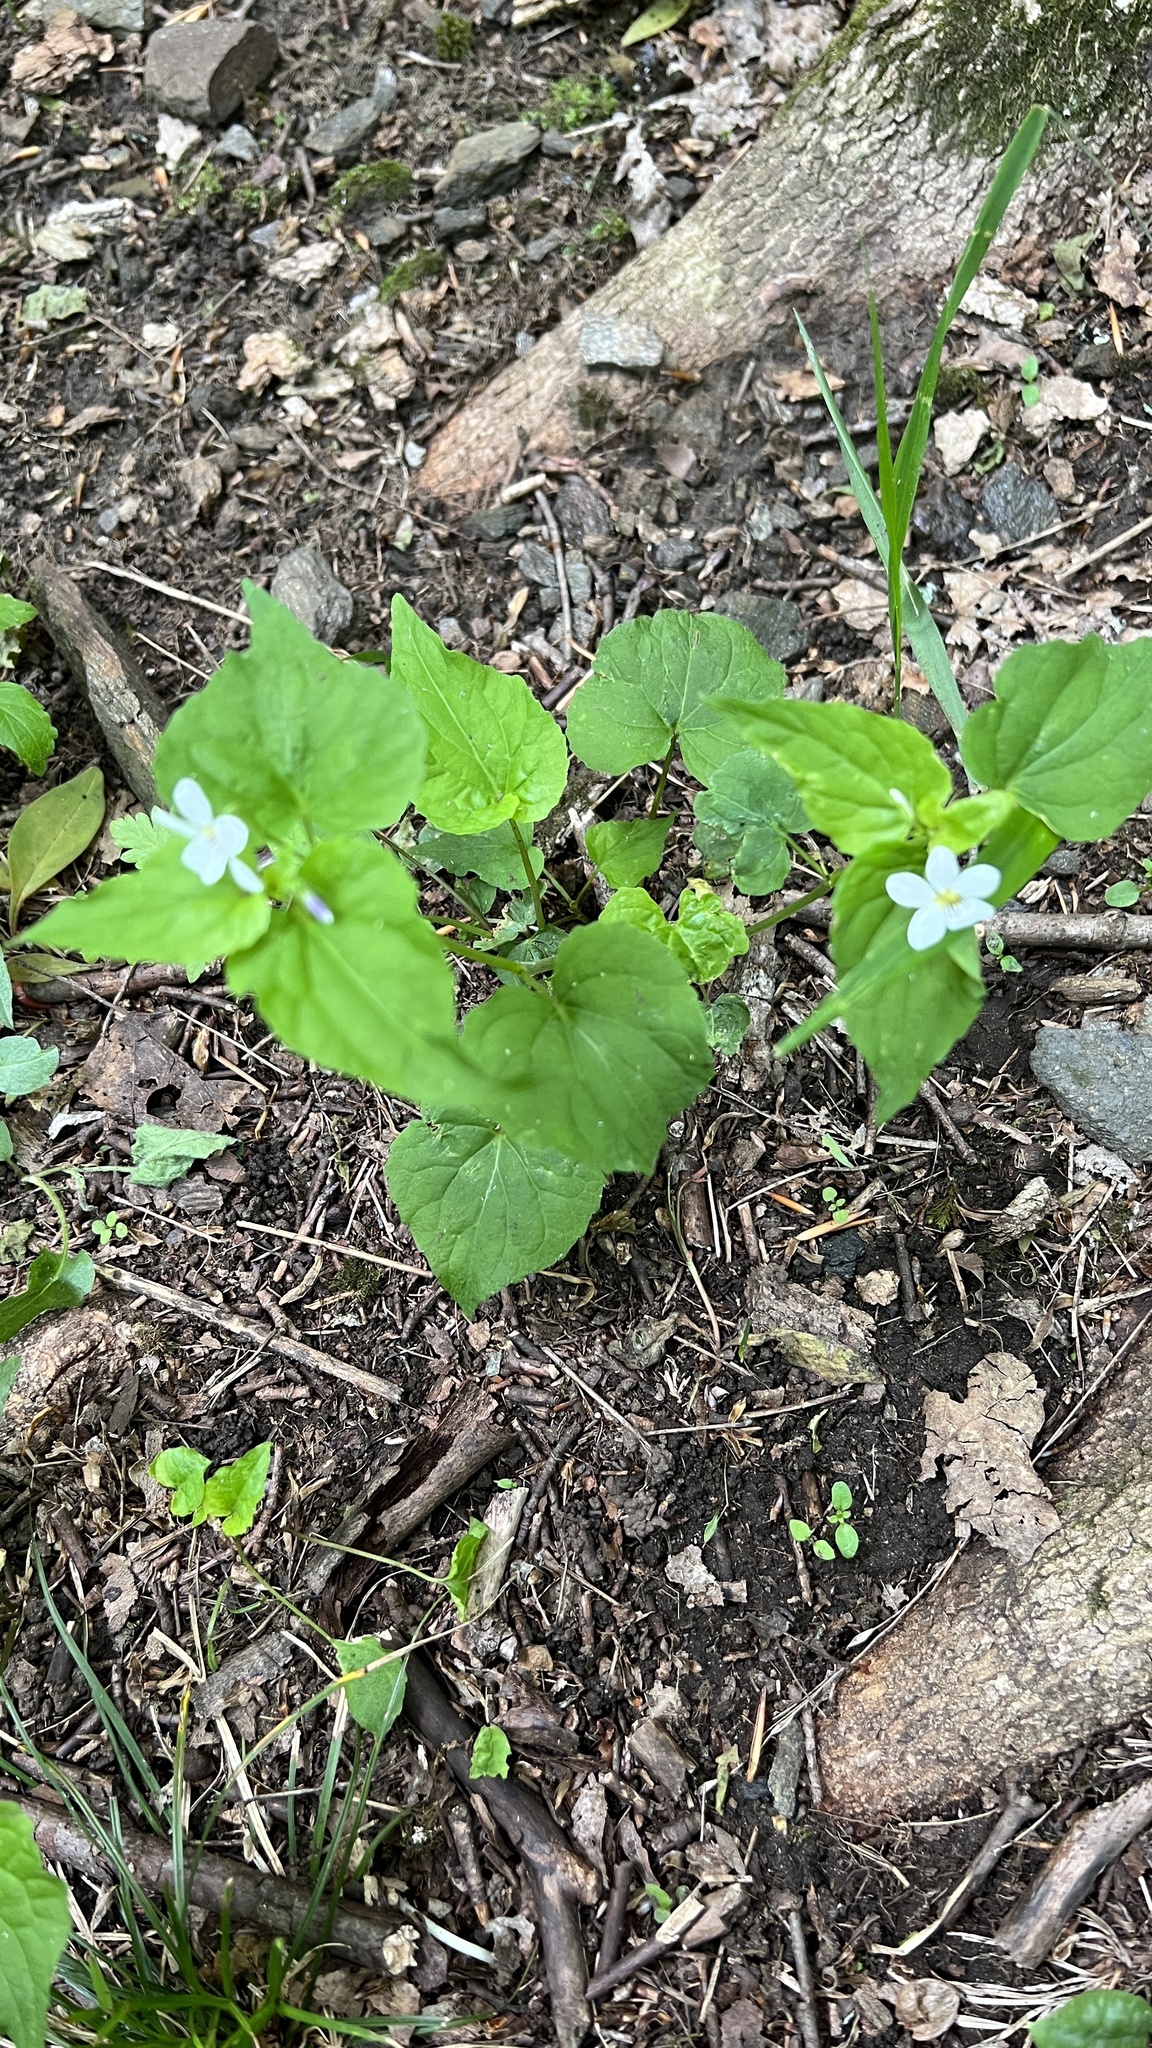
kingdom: Plantae
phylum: Tracheophyta
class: Magnoliopsida
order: Malpighiales
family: Violaceae
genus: Viola
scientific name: Viola canadensis
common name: Canada violet
